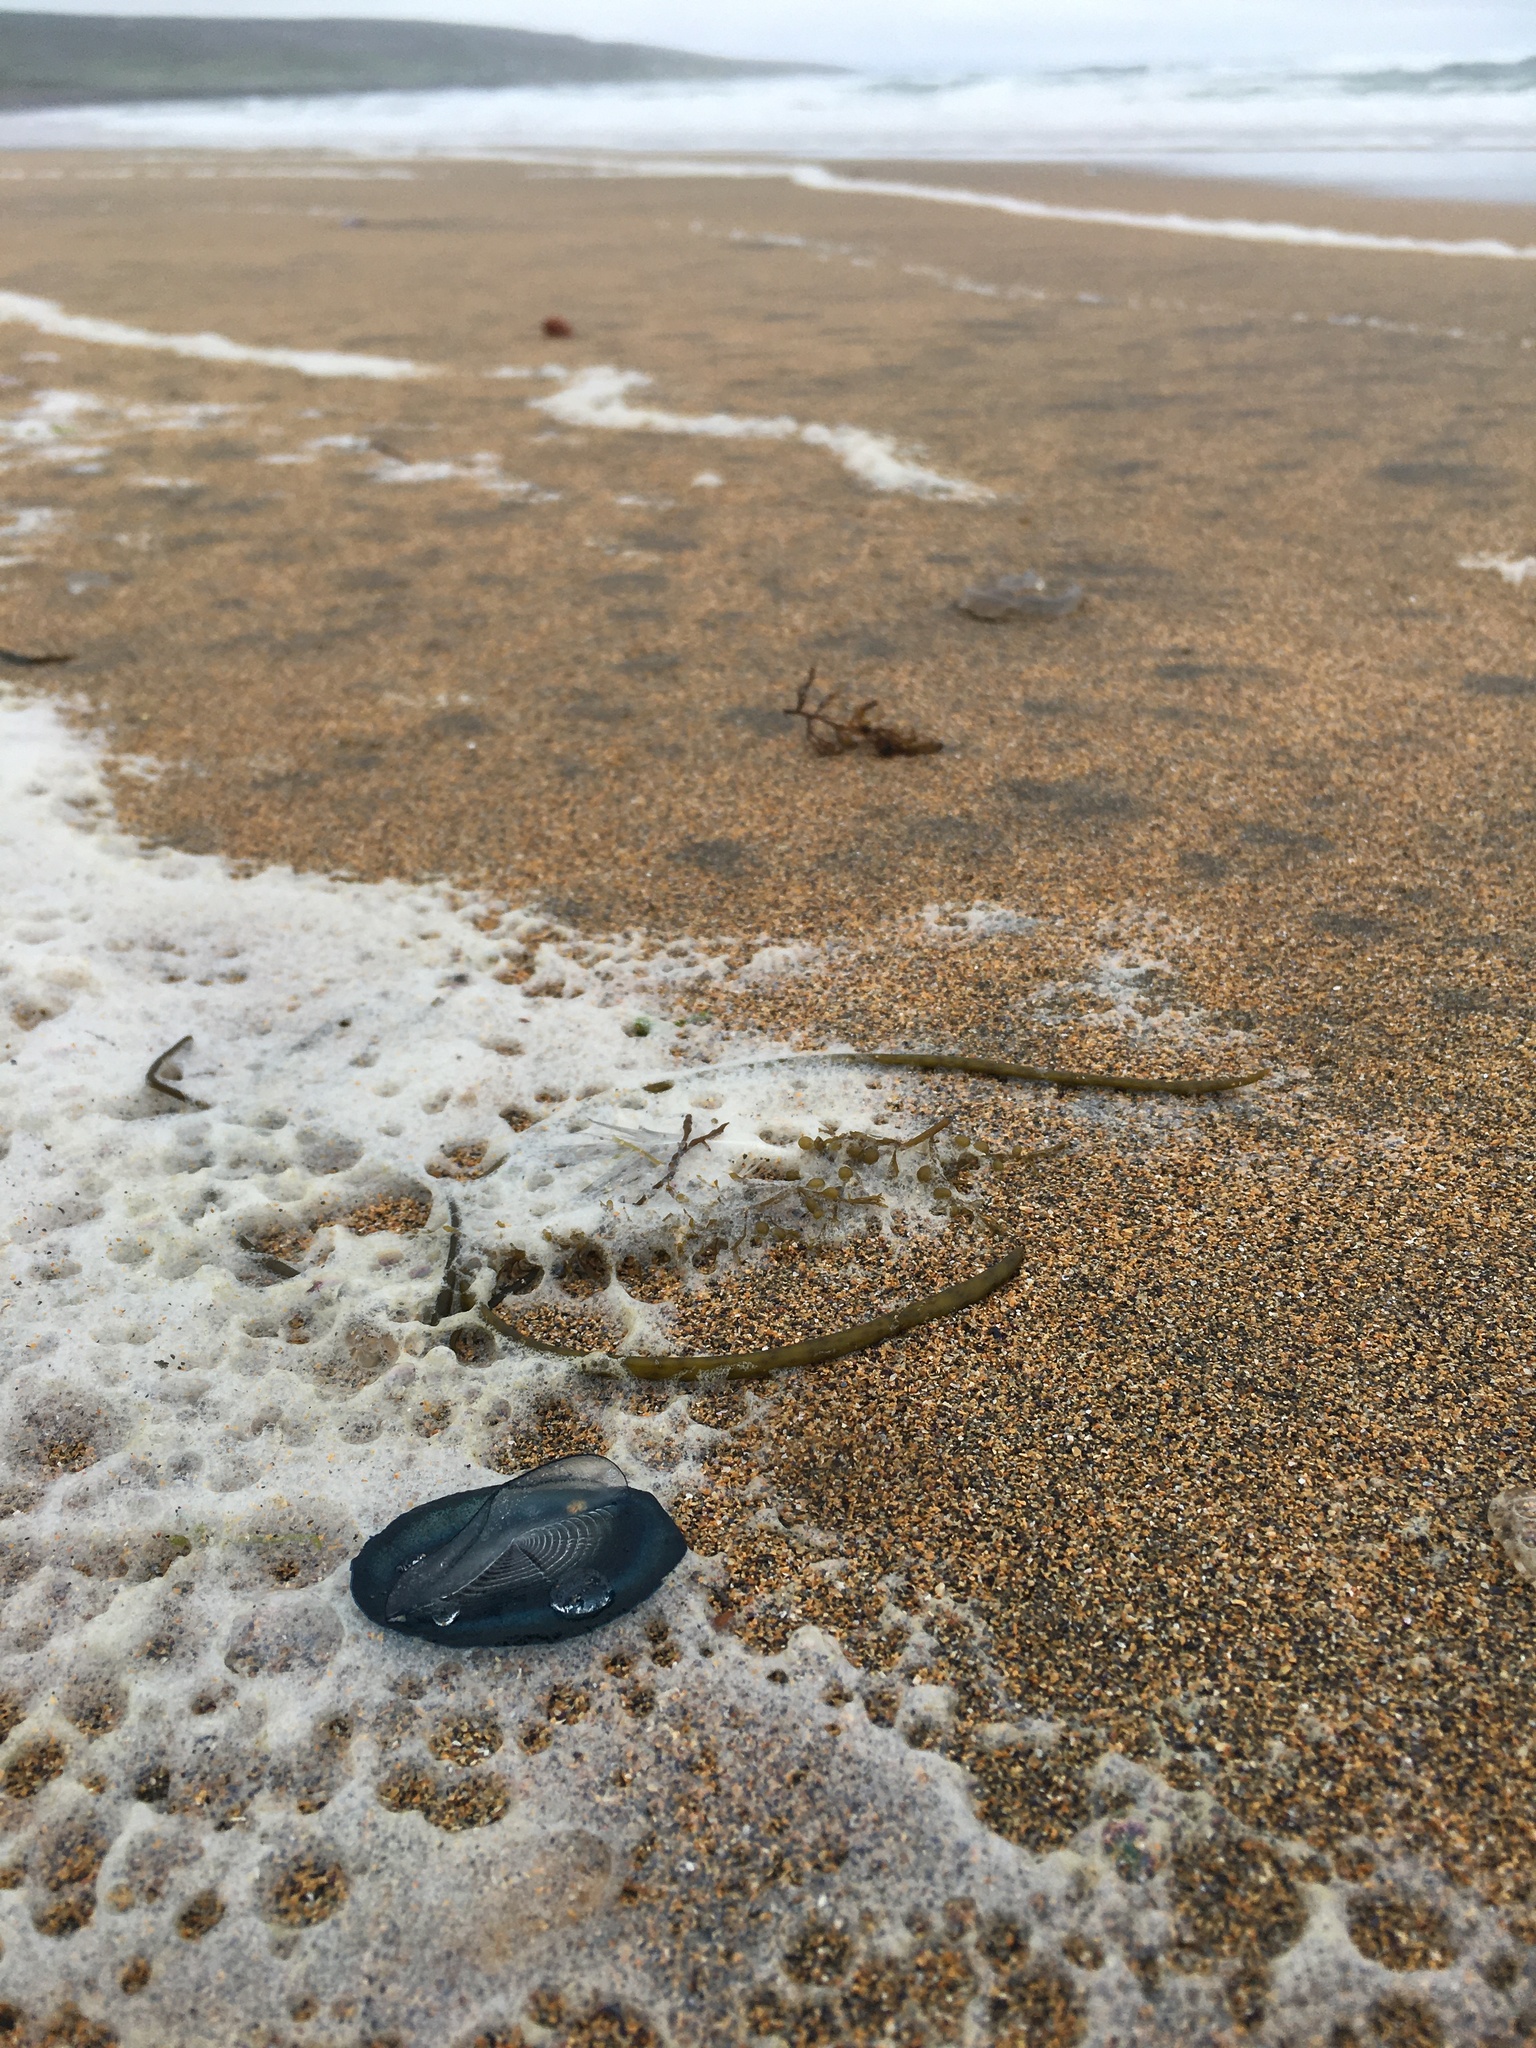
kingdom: Animalia
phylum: Cnidaria
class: Hydrozoa
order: Anthoathecata
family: Porpitidae
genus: Velella
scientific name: Velella velella
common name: By-the-wind-sailor
